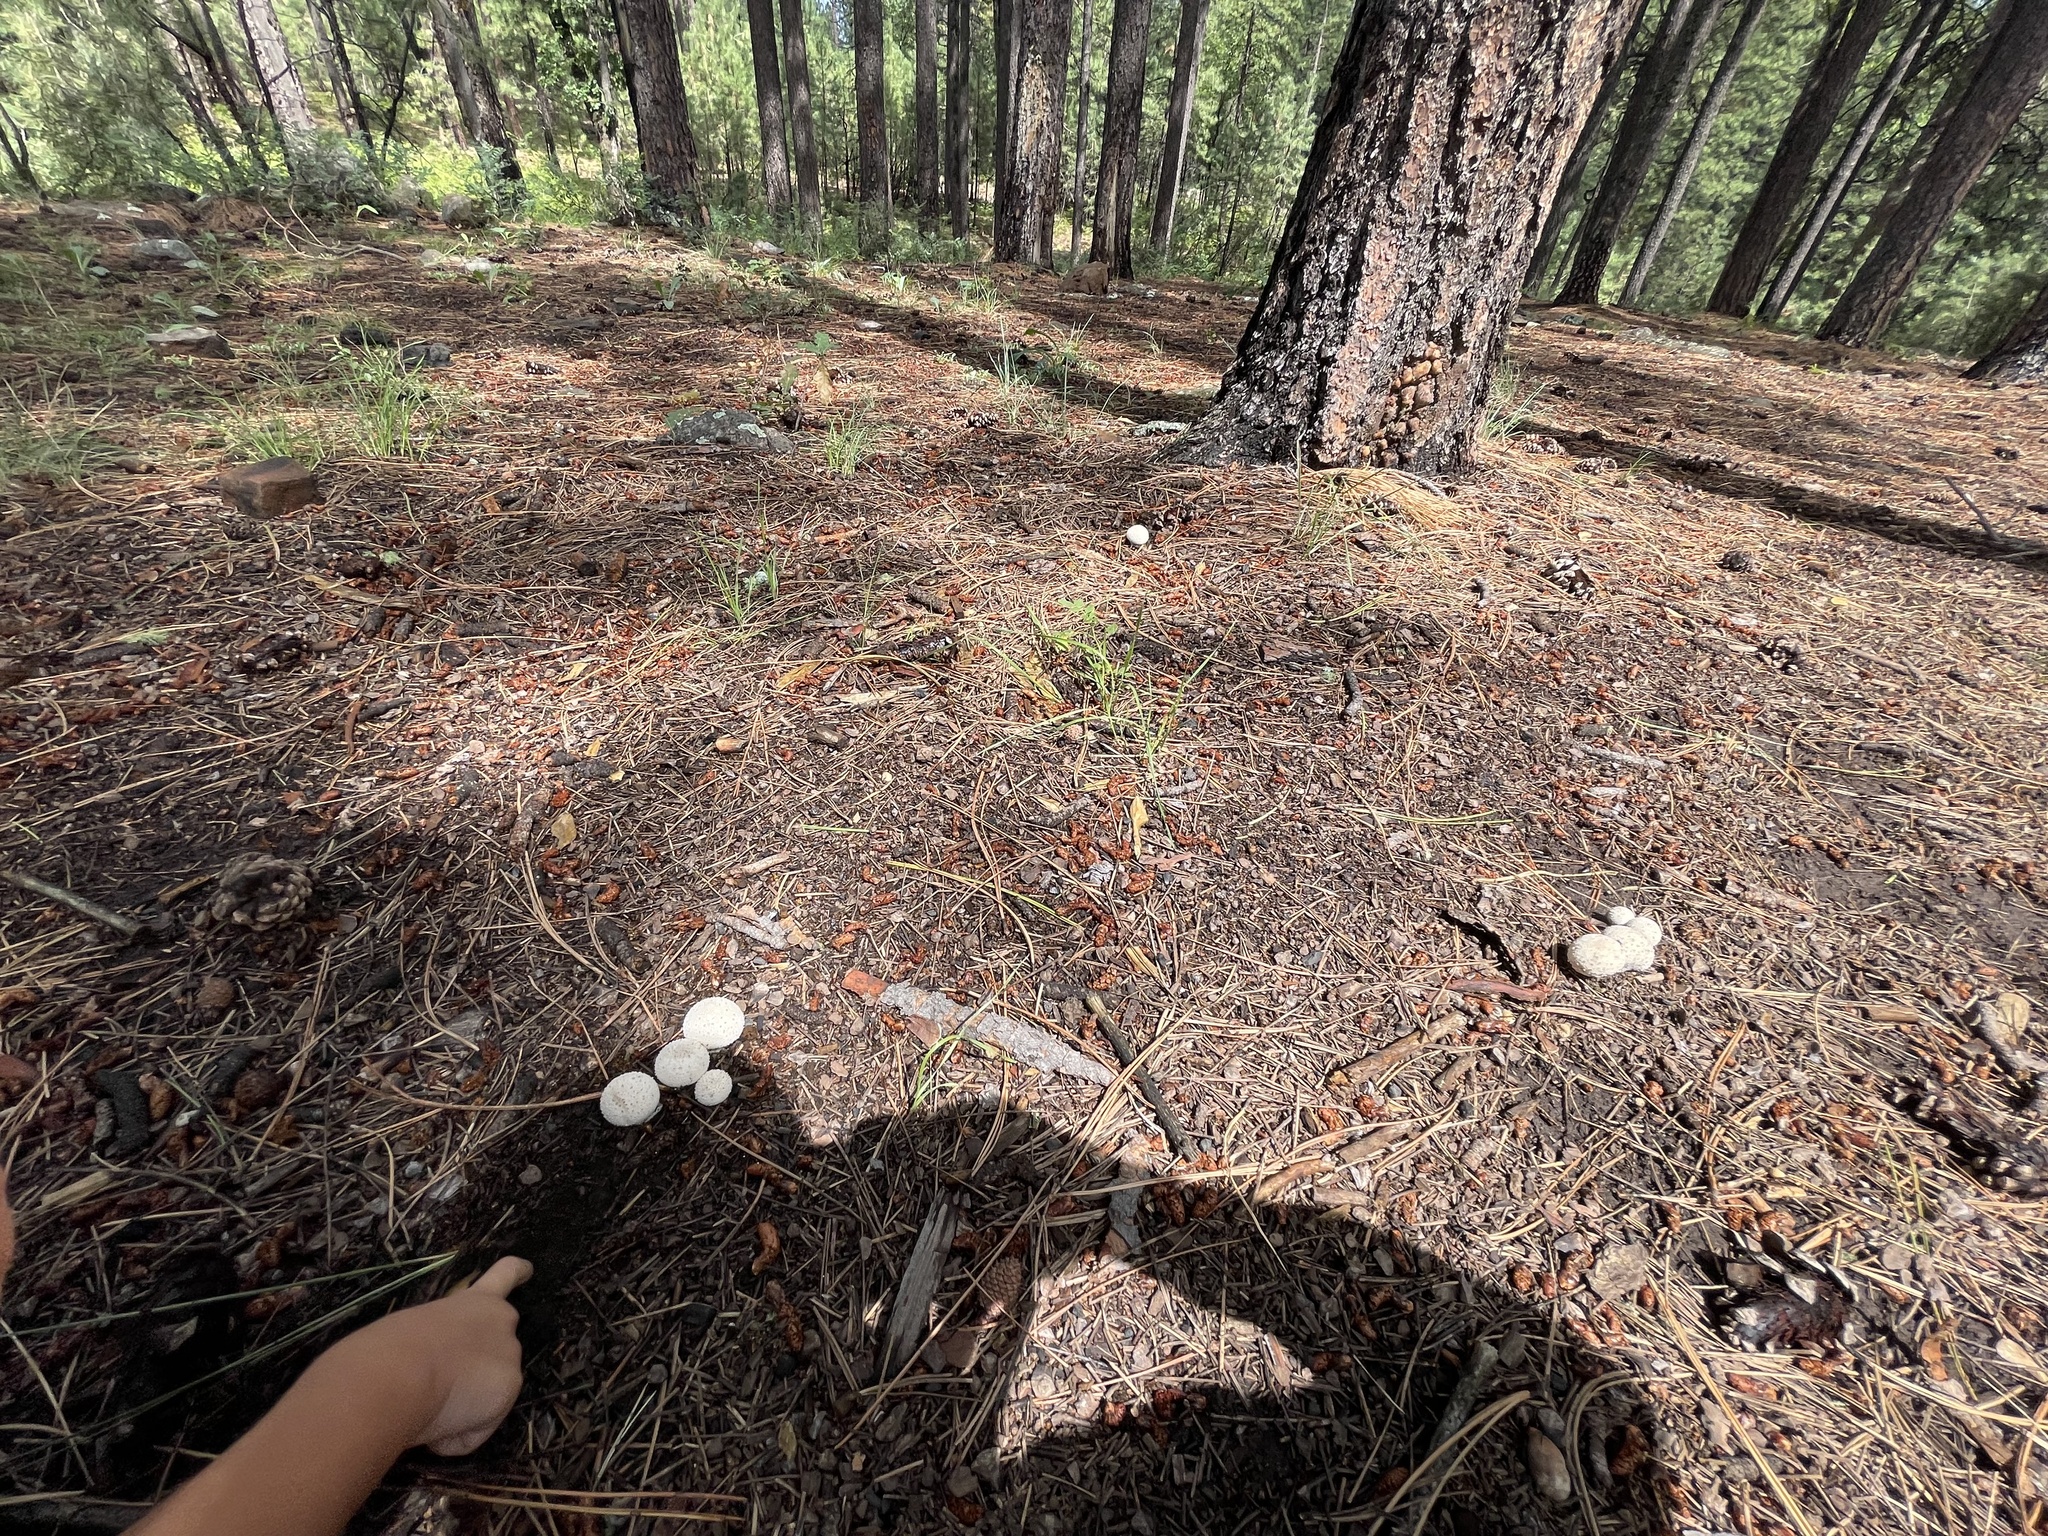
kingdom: Fungi
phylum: Basidiomycota
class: Agaricomycetes
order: Agaricales
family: Lycoperdaceae
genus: Lycoperdon
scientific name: Lycoperdon perlatum
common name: Common puffball
